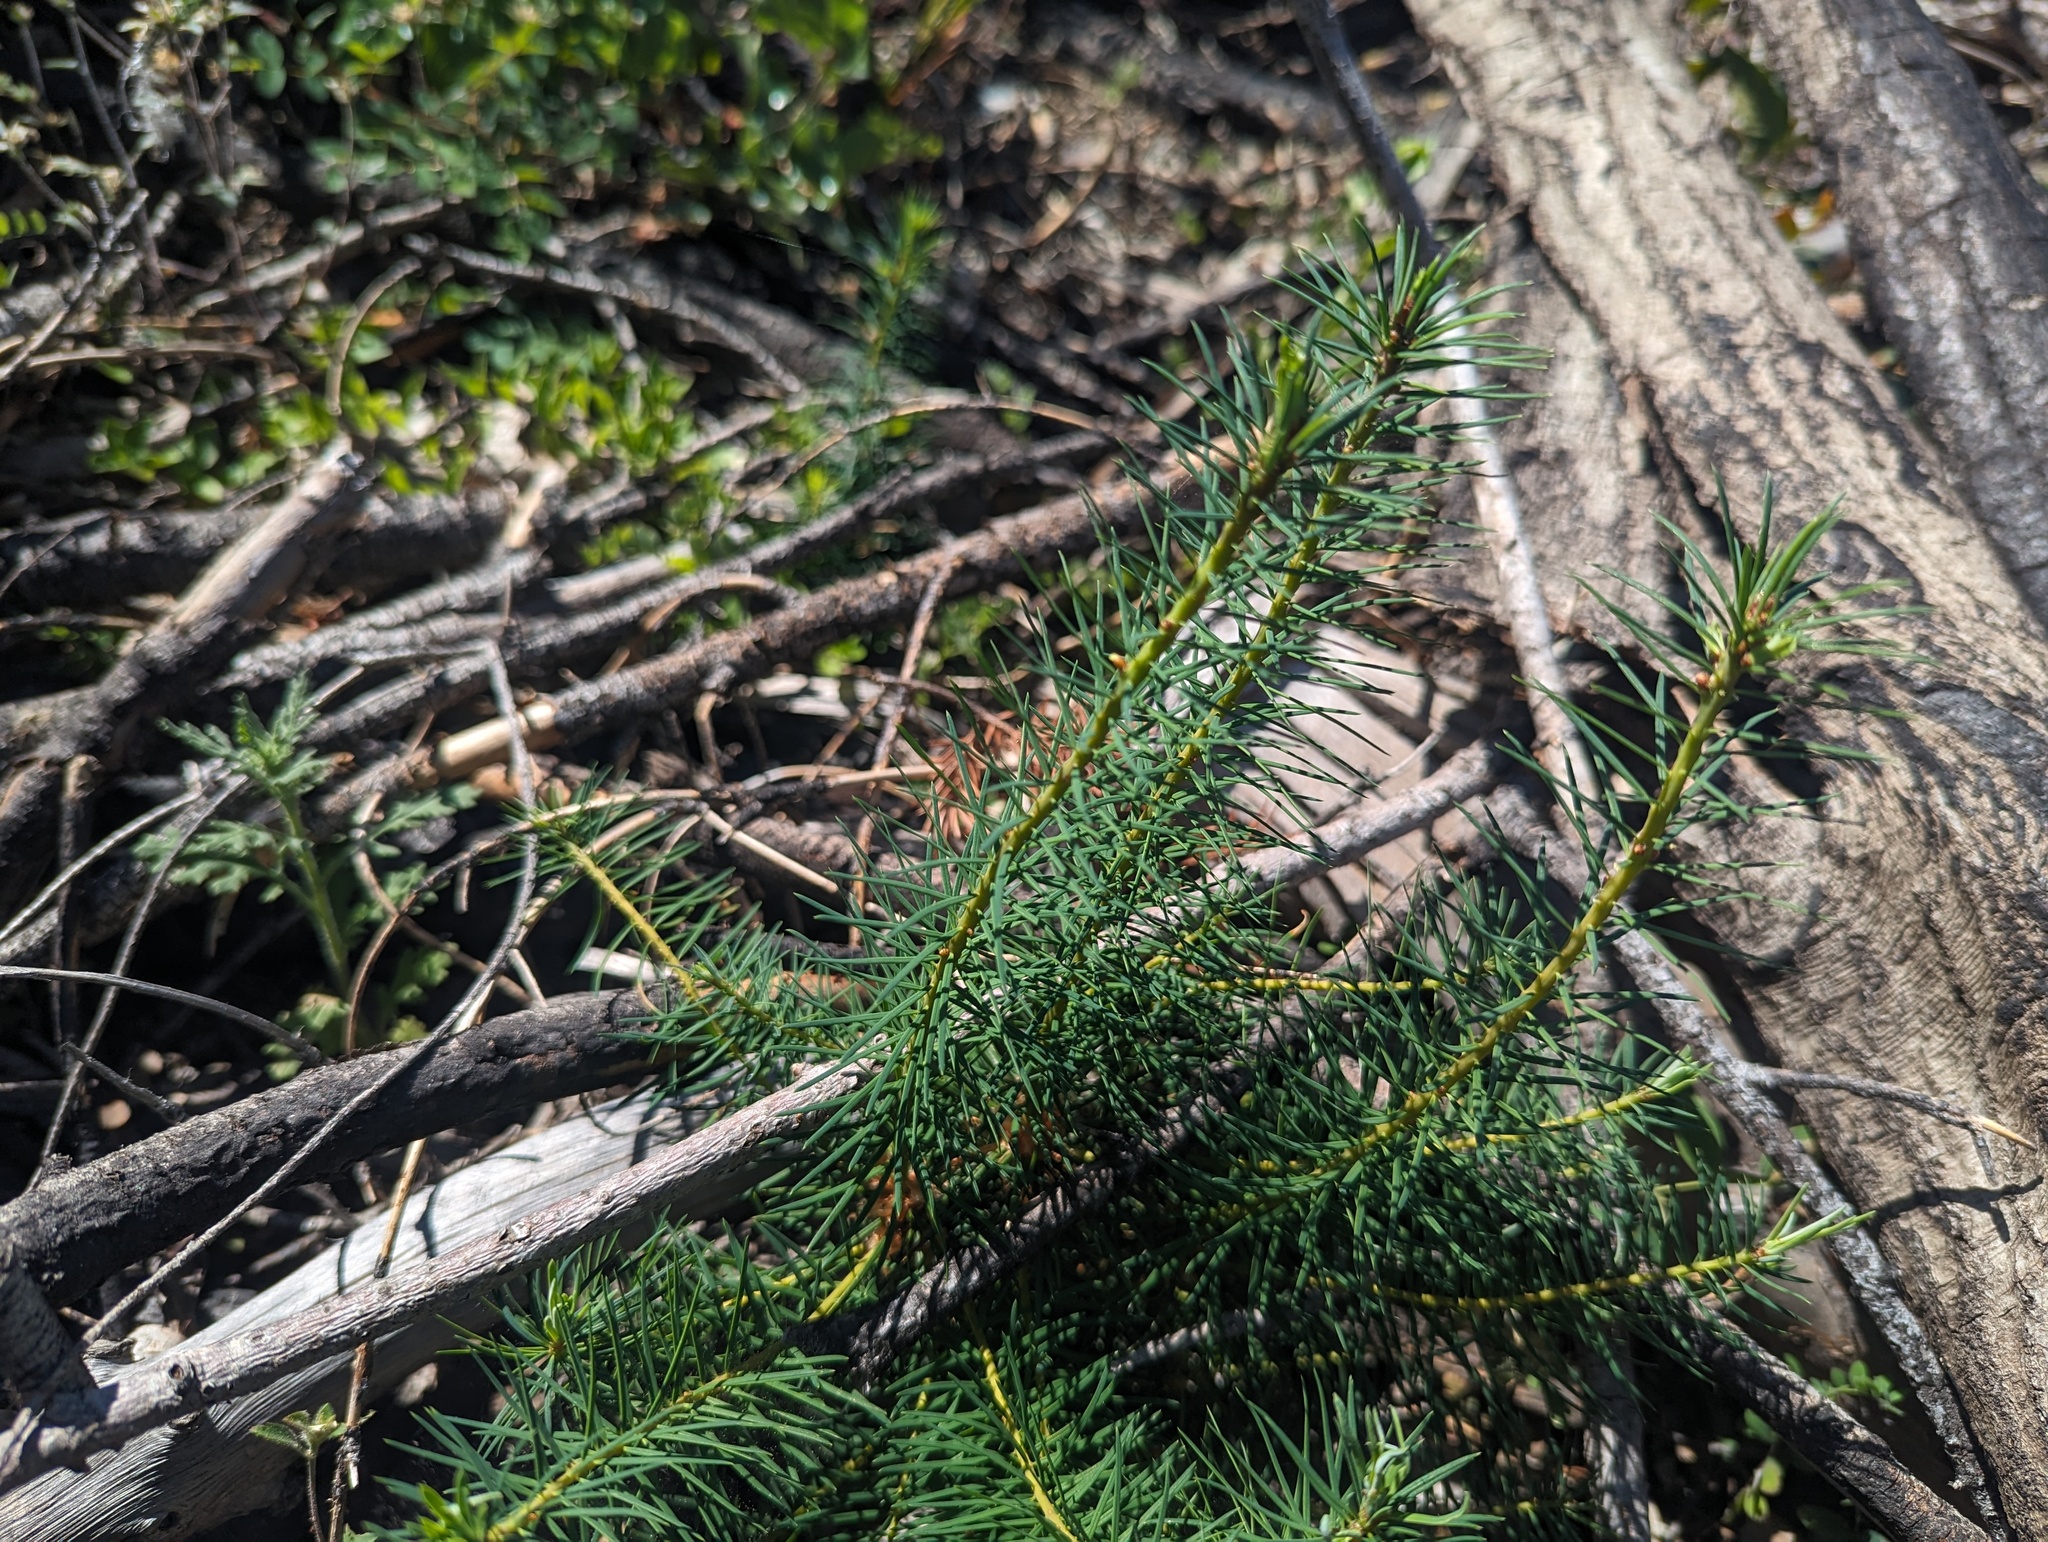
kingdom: Plantae
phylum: Tracheophyta
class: Pinopsida
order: Pinales
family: Pinaceae
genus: Pseudotsuga
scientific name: Pseudotsuga menziesii
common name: Douglas fir
